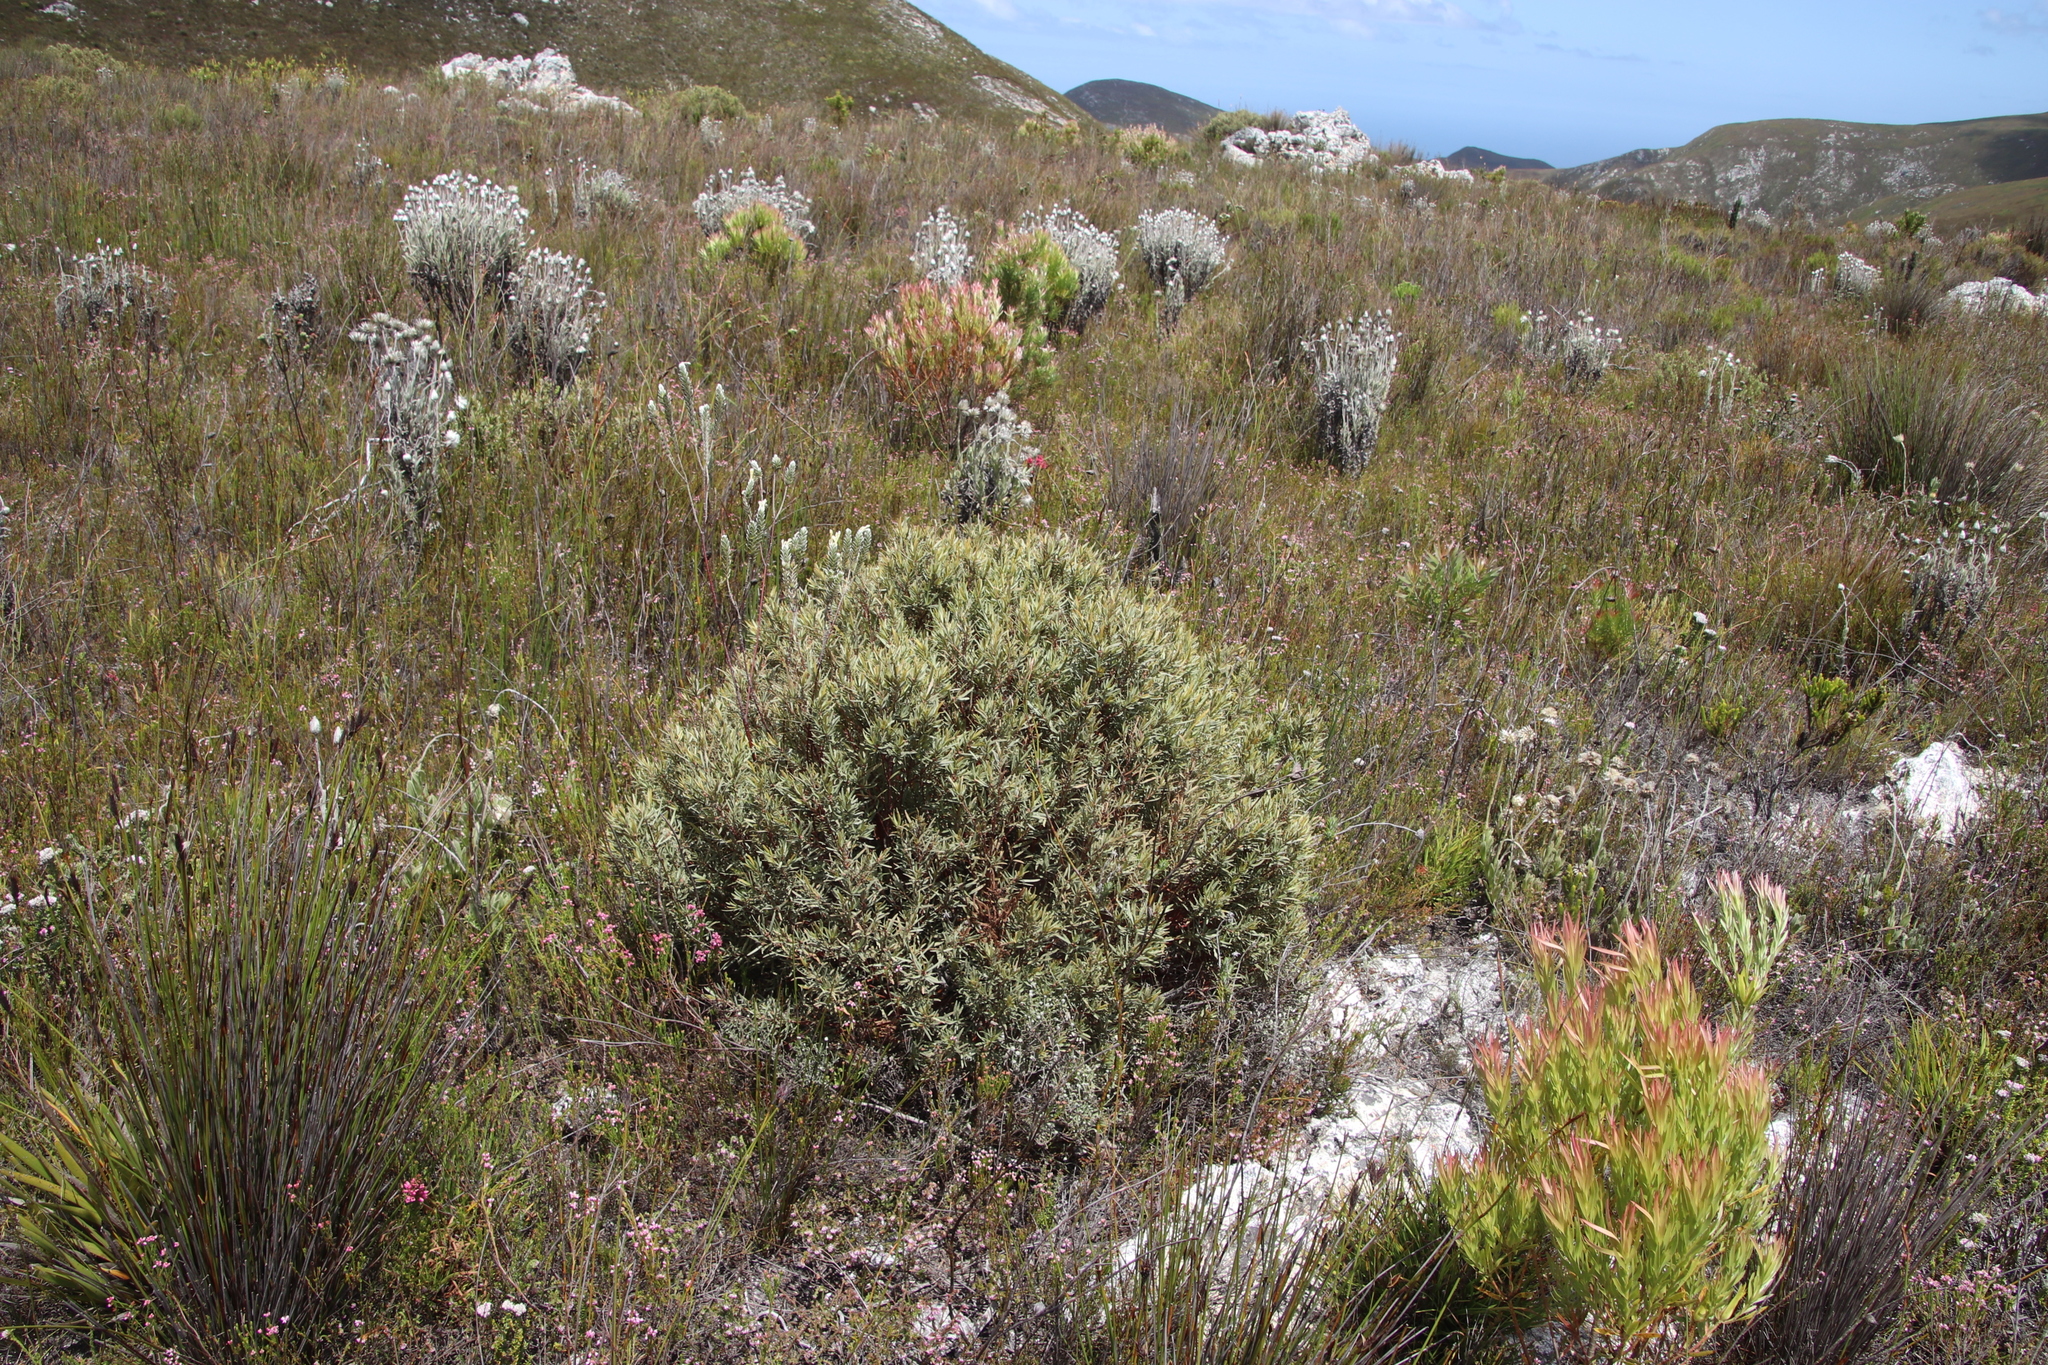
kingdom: Plantae
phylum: Tracheophyta
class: Magnoliopsida
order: Cornales
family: Grubbiaceae
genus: Grubbia
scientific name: Grubbia tomentosa
